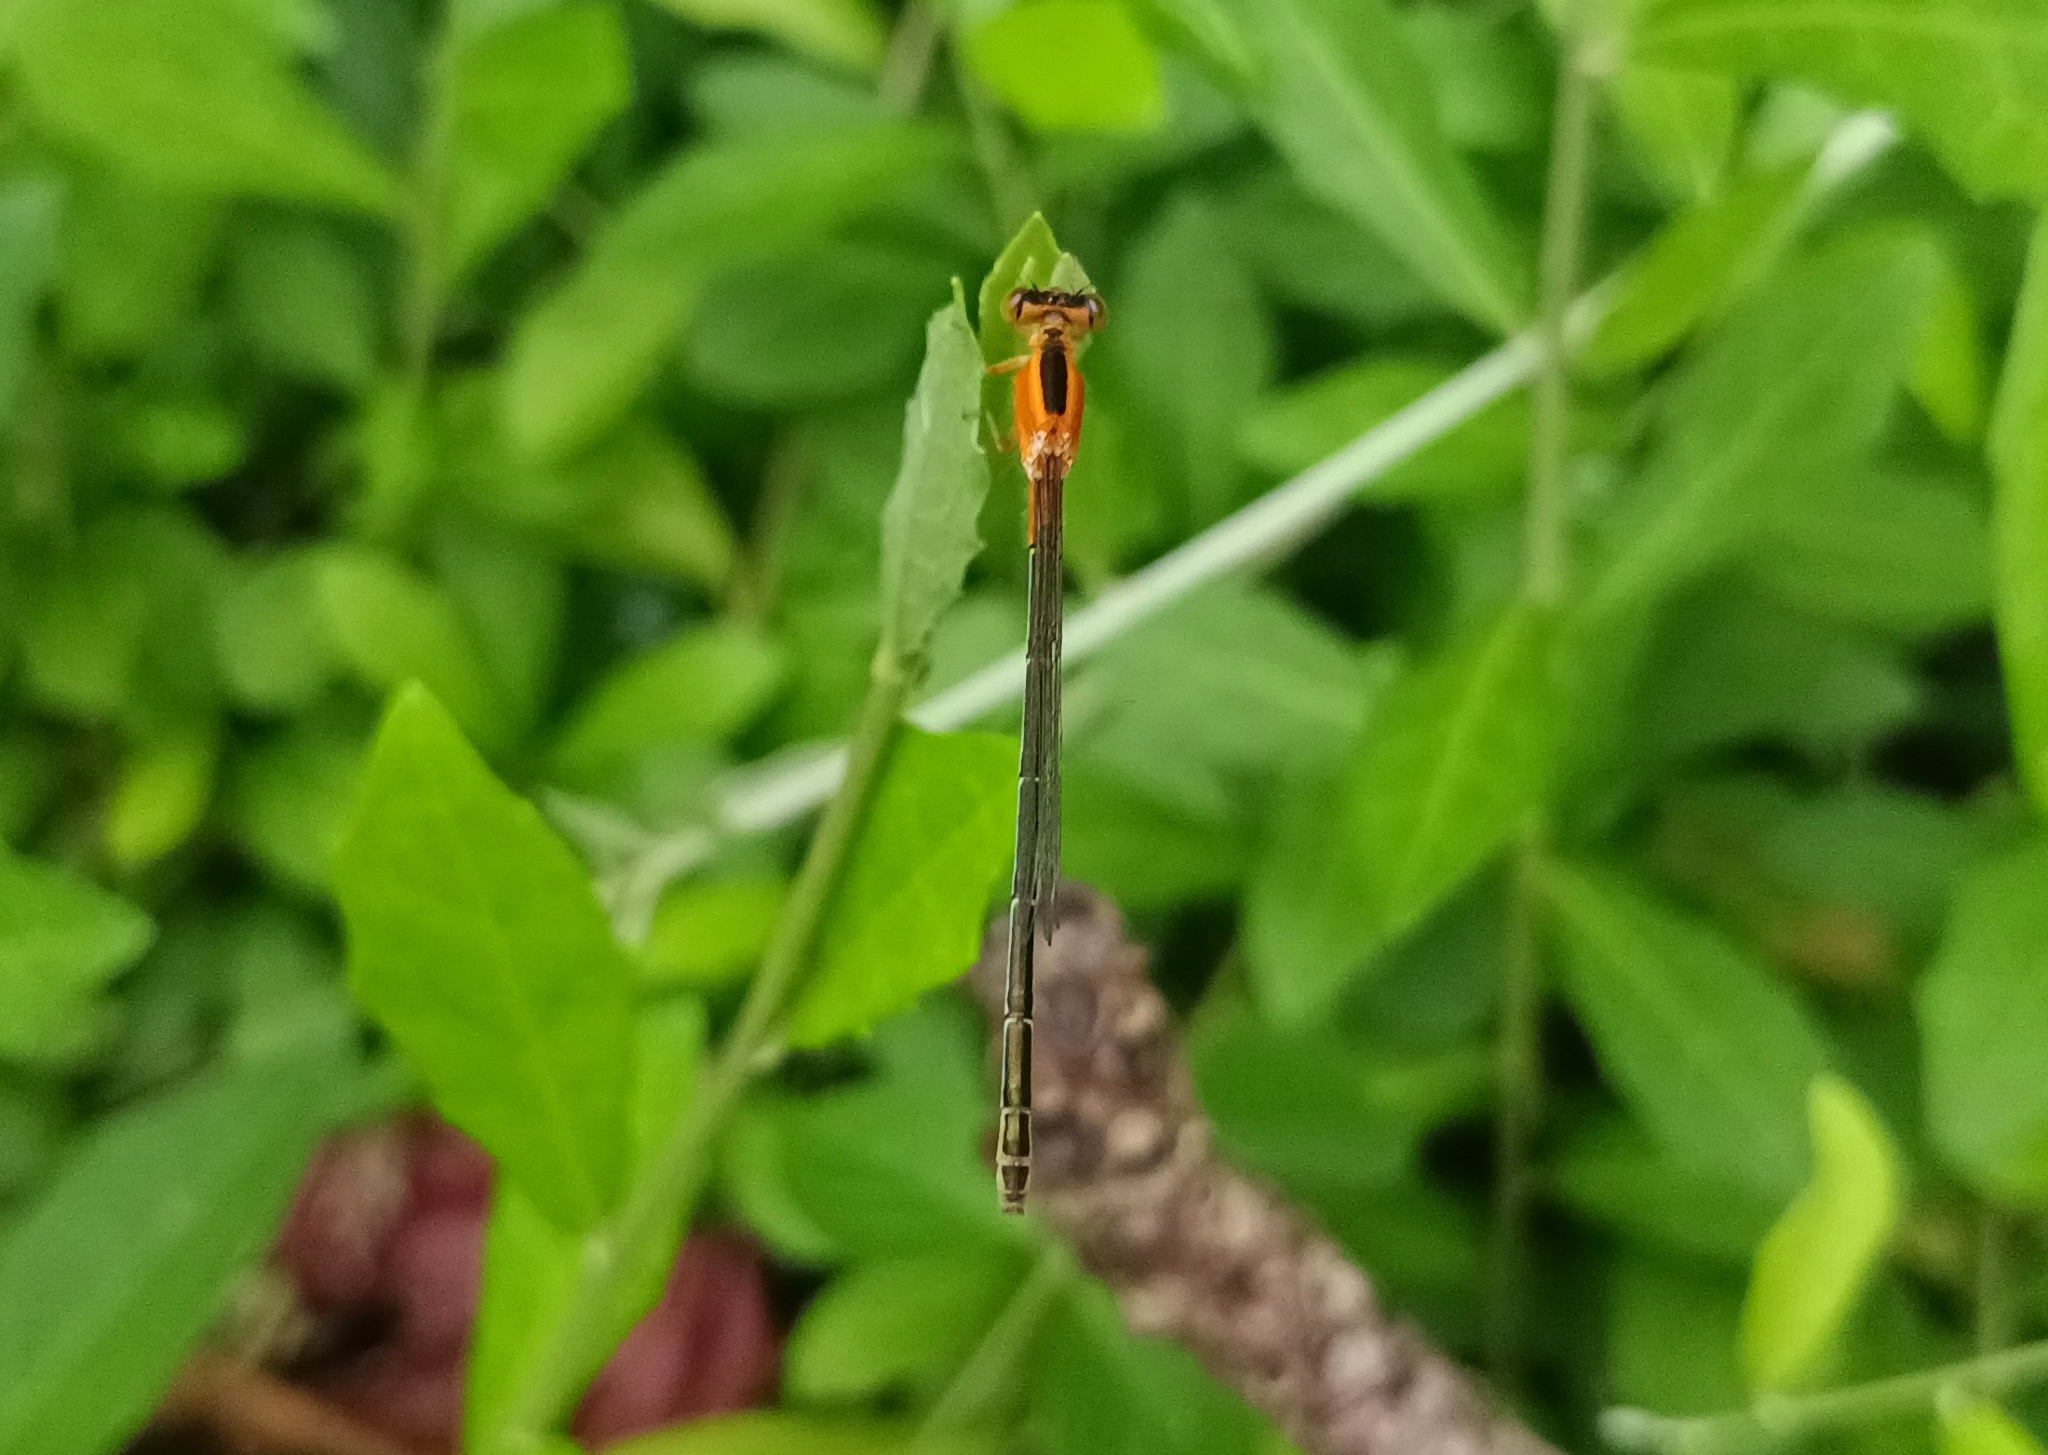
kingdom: Animalia
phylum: Arthropoda
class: Insecta
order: Odonata
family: Coenagrionidae
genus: Ischnura
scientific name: Ischnura senegalensis
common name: Tropical bluetail
